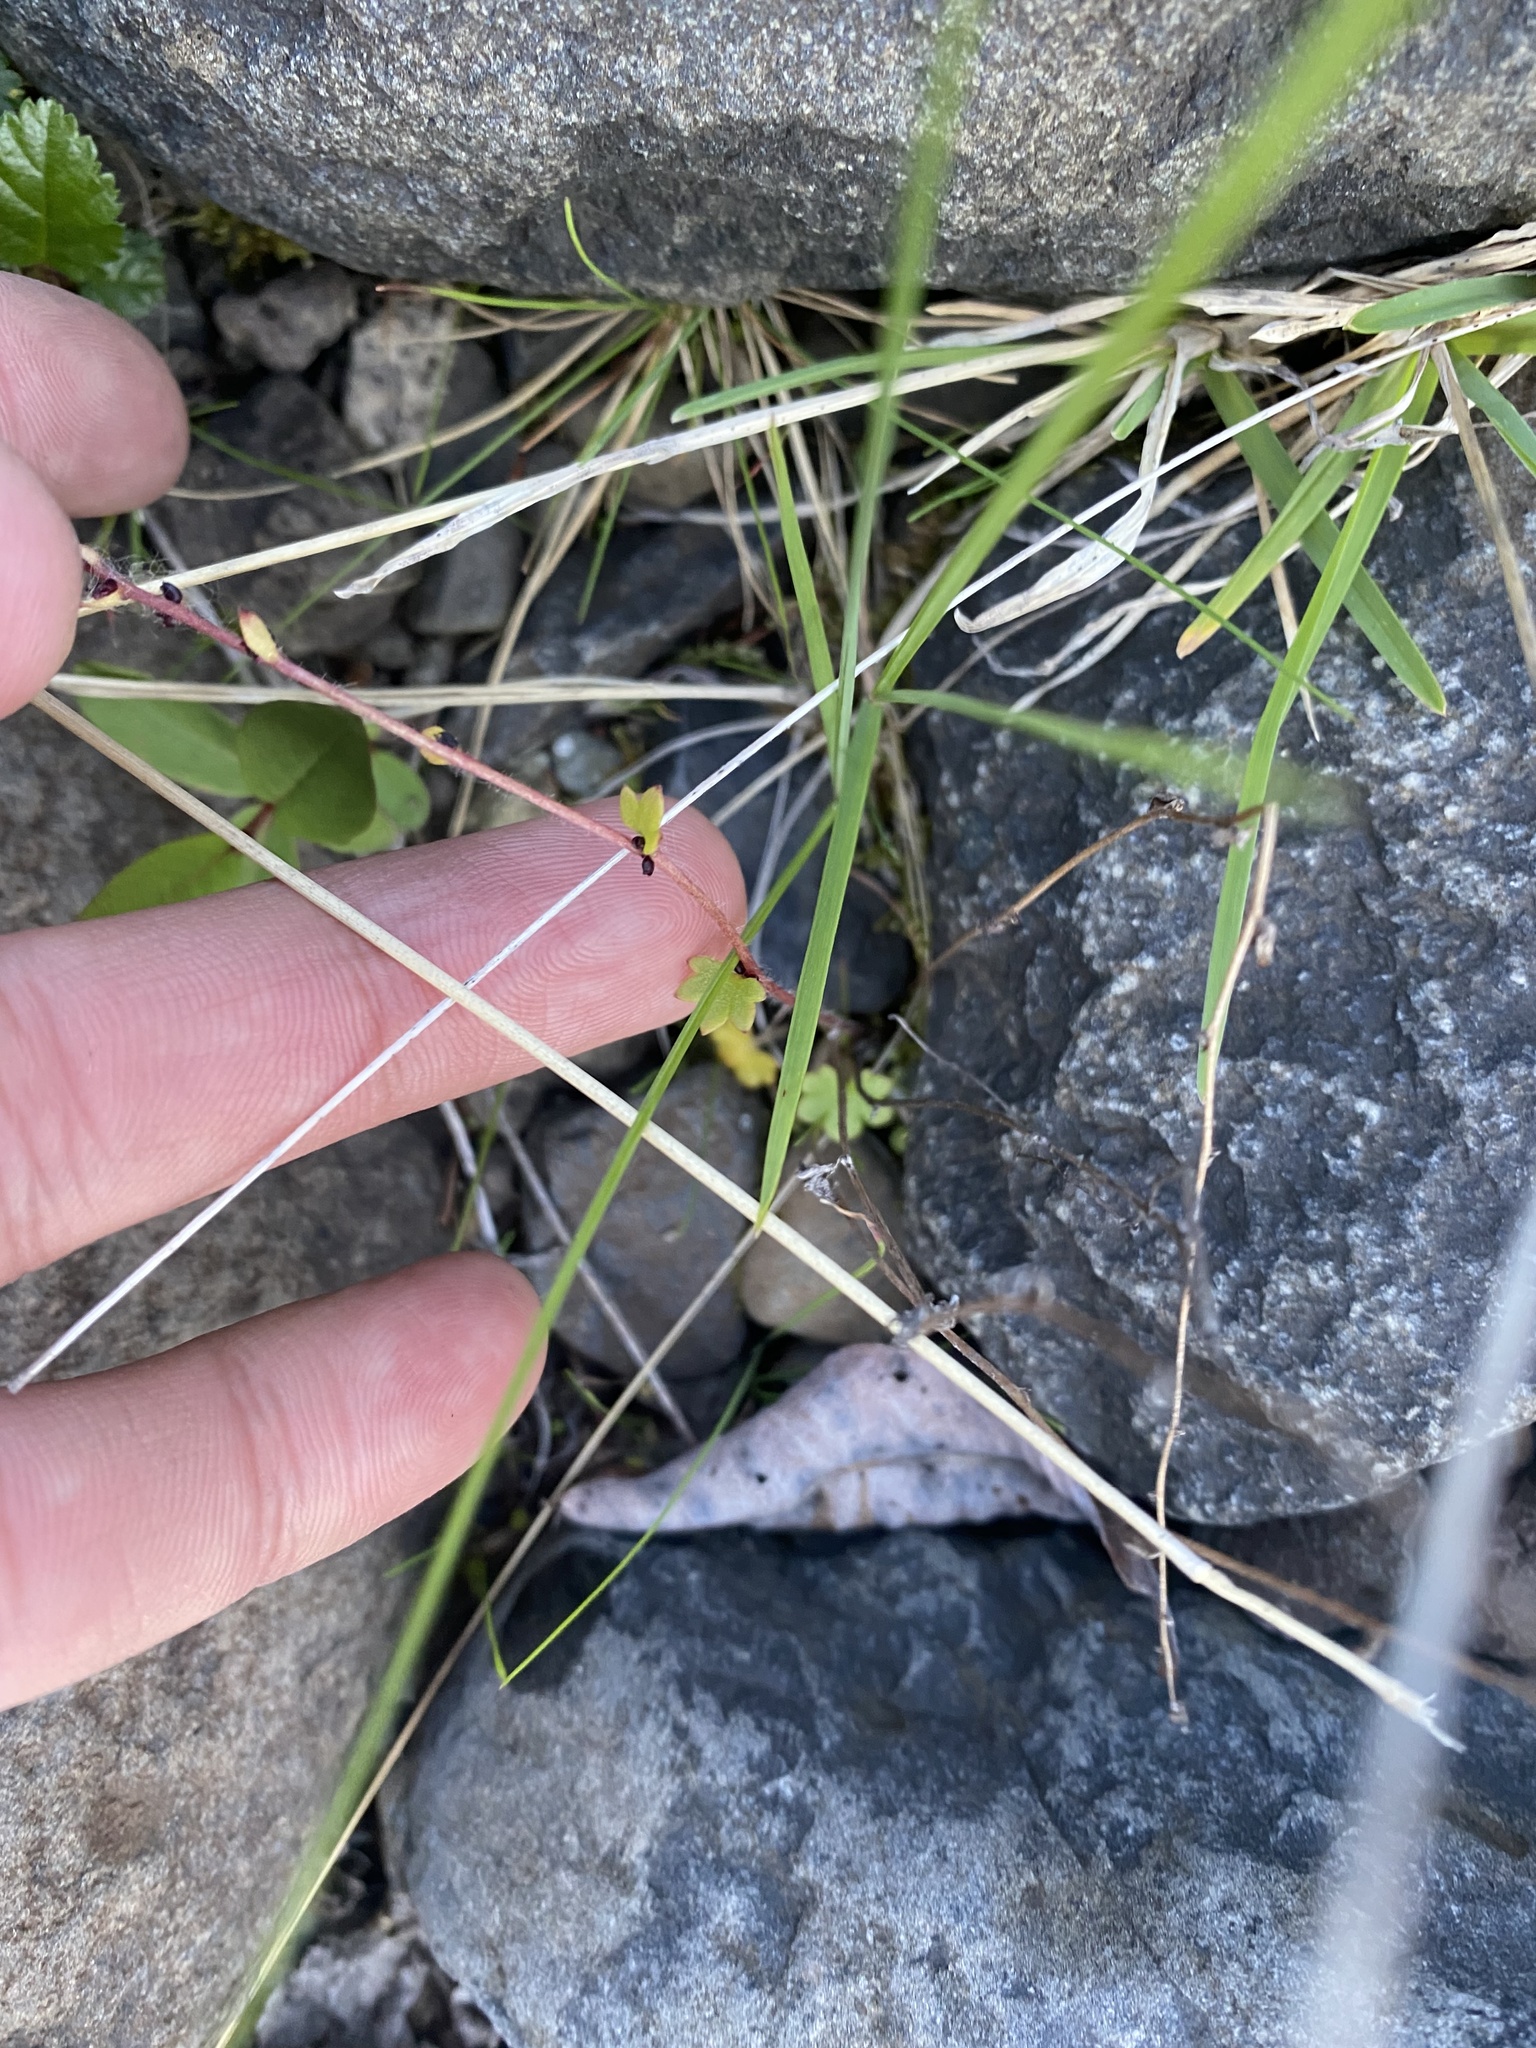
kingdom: Plantae
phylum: Tracheophyta
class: Magnoliopsida
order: Saxifragales
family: Saxifragaceae
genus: Saxifraga
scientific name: Saxifraga cernua
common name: Drooping saxifrage
